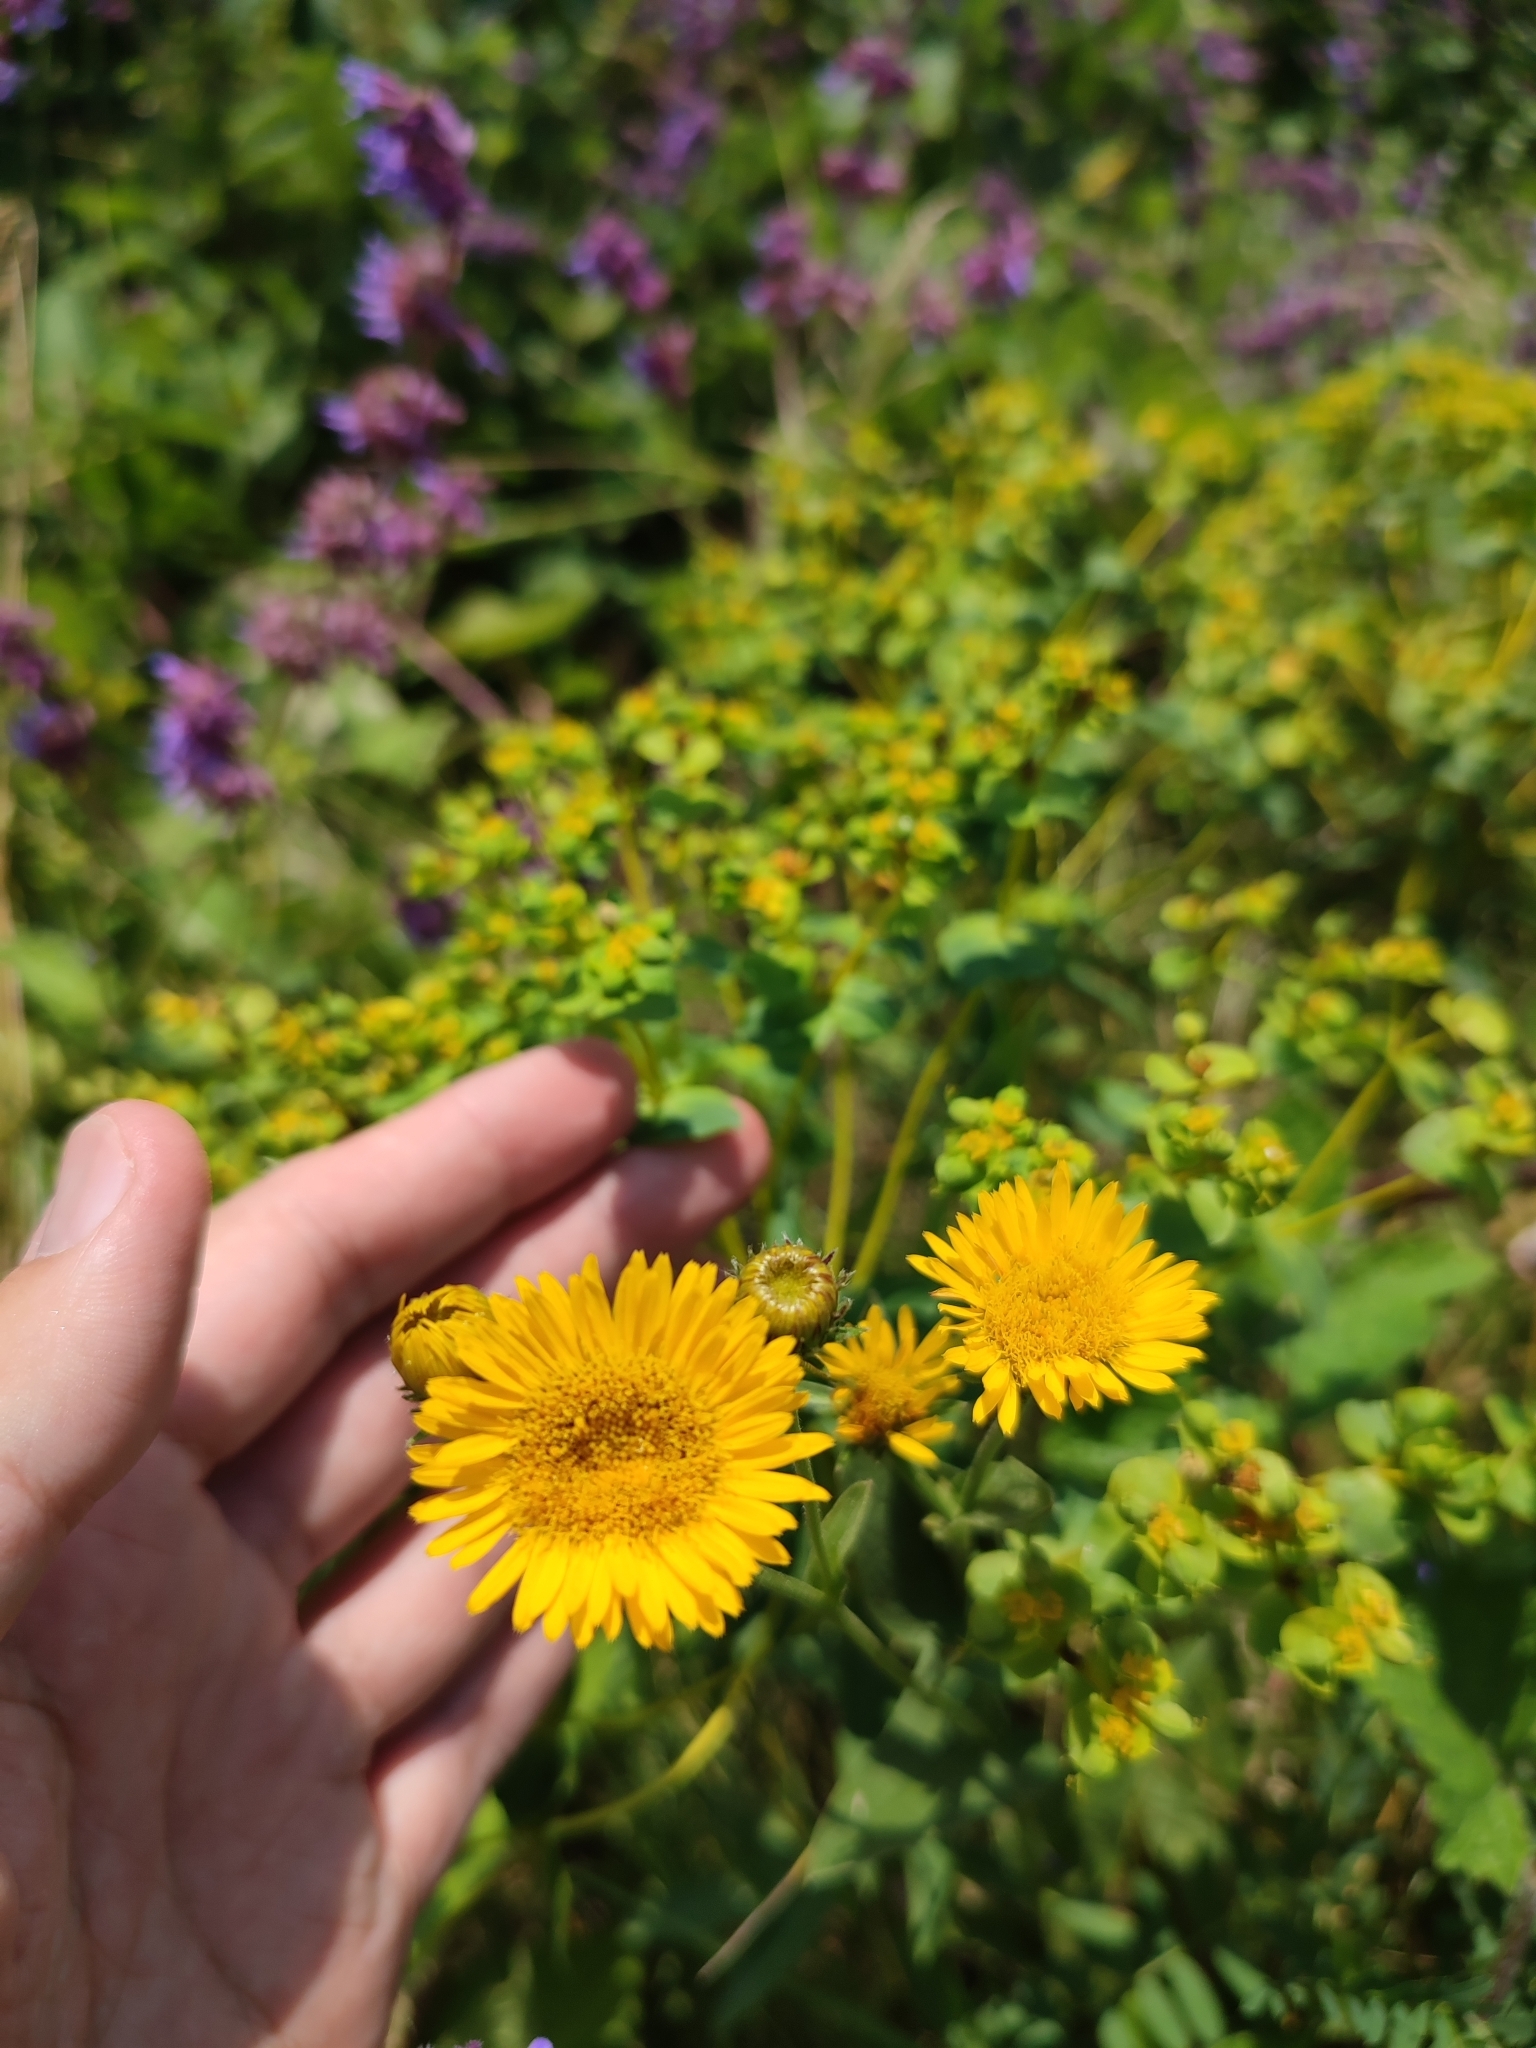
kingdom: Plantae
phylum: Tracheophyta
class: Magnoliopsida
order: Asterales
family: Asteraceae
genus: Pentanema
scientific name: Pentanema oculus-christi
